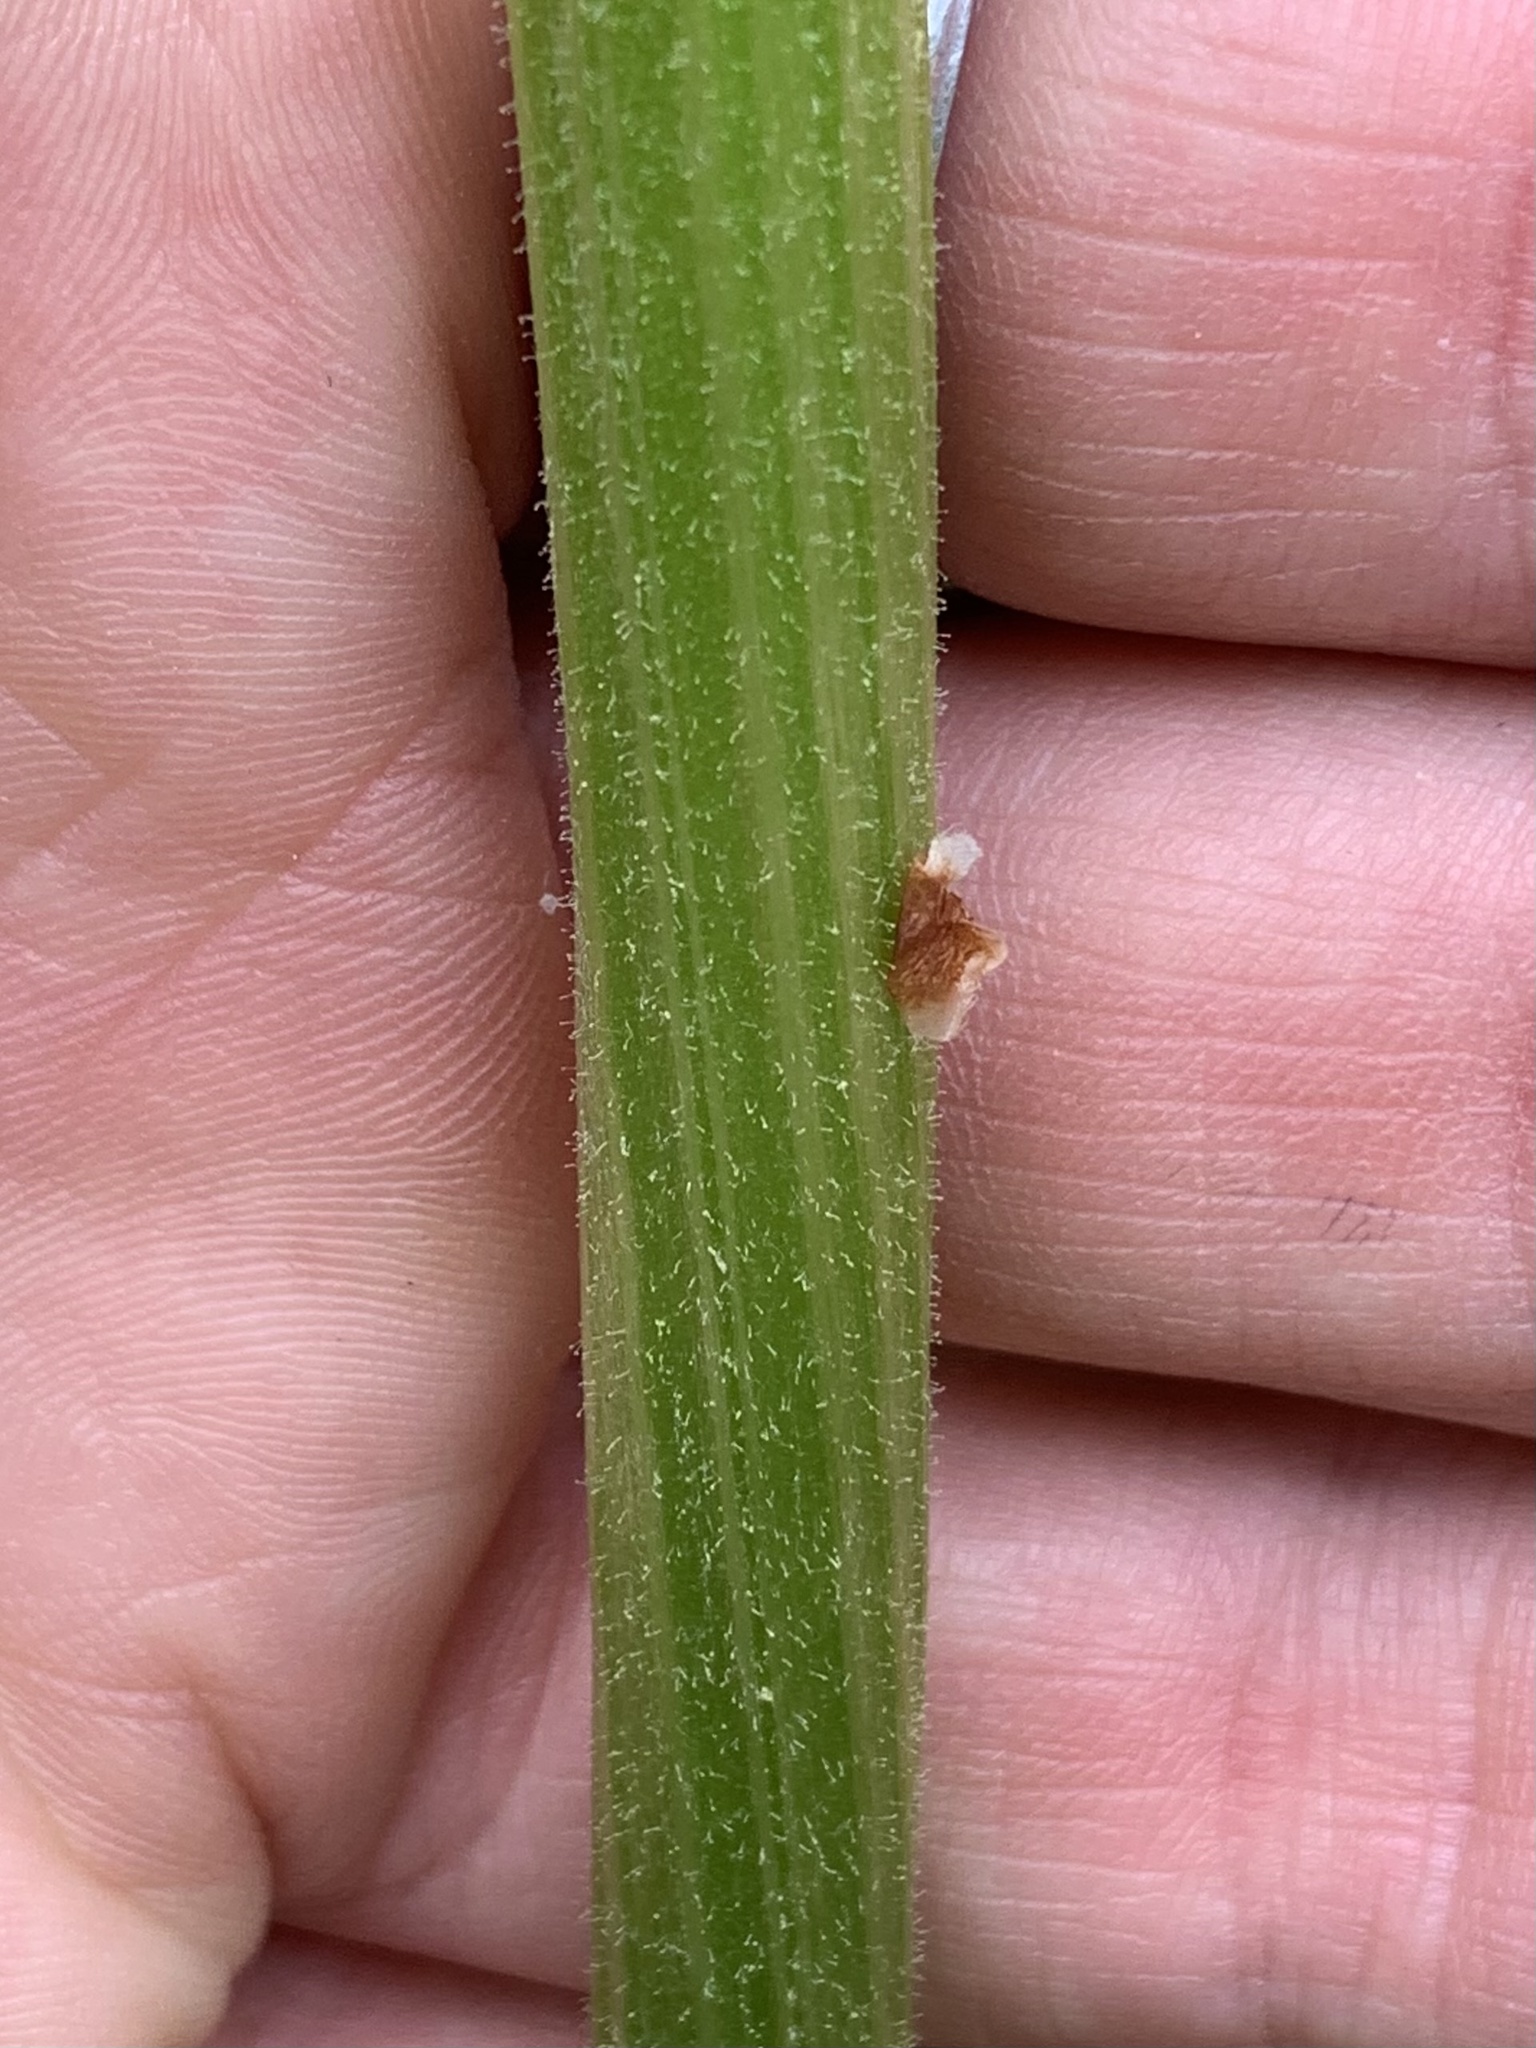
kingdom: Plantae
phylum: Tracheophyta
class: Magnoliopsida
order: Asterales
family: Asteraceae
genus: Petasites
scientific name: Petasites frigidus
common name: Arctic butterbur
